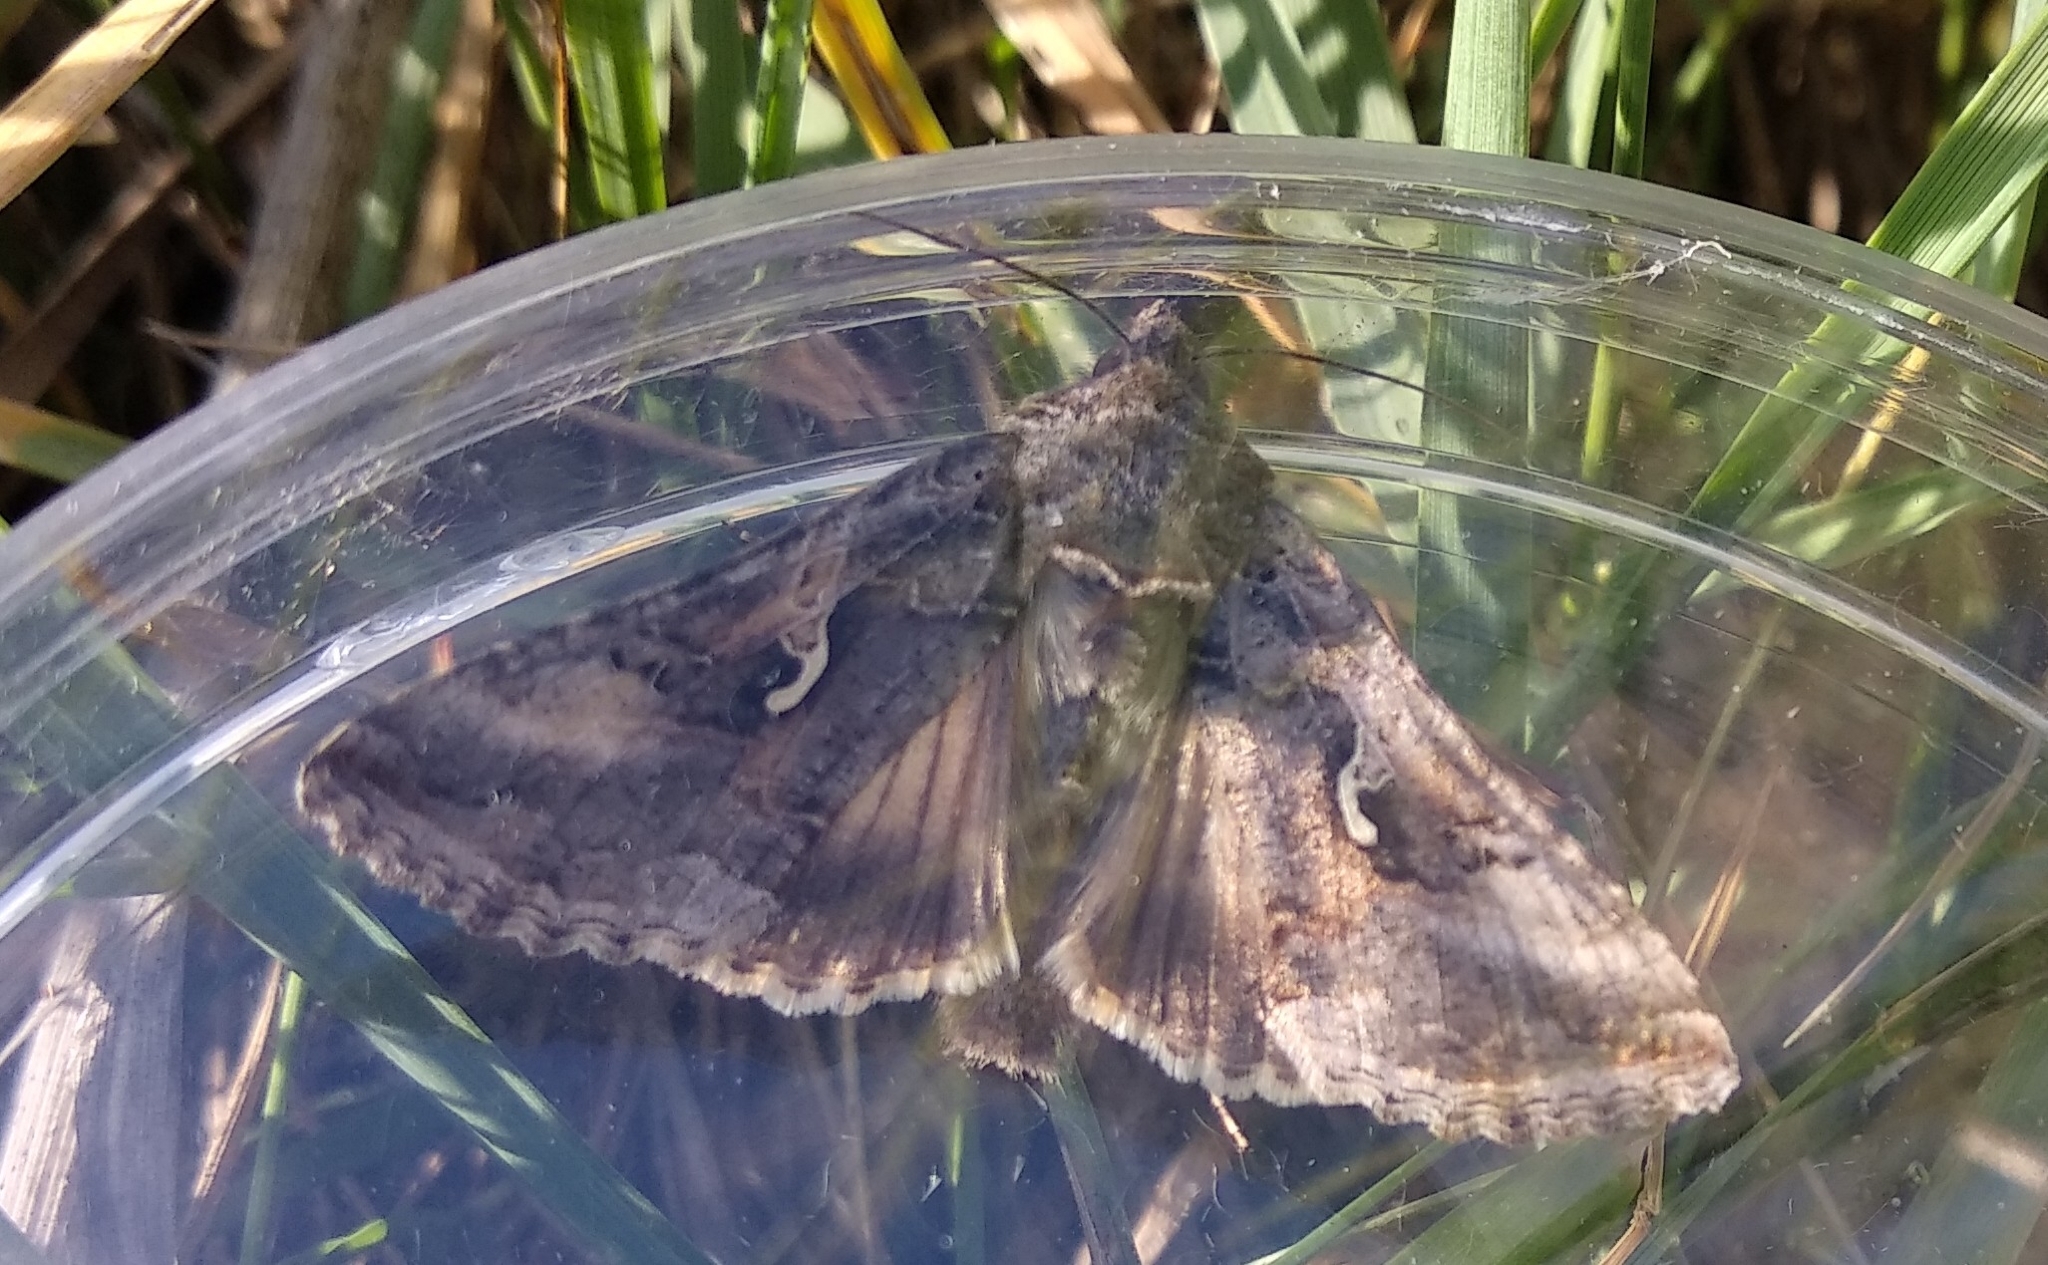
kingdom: Animalia
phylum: Arthropoda
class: Insecta
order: Lepidoptera
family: Noctuidae
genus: Autographa
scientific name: Autographa gamma
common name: Silver y
